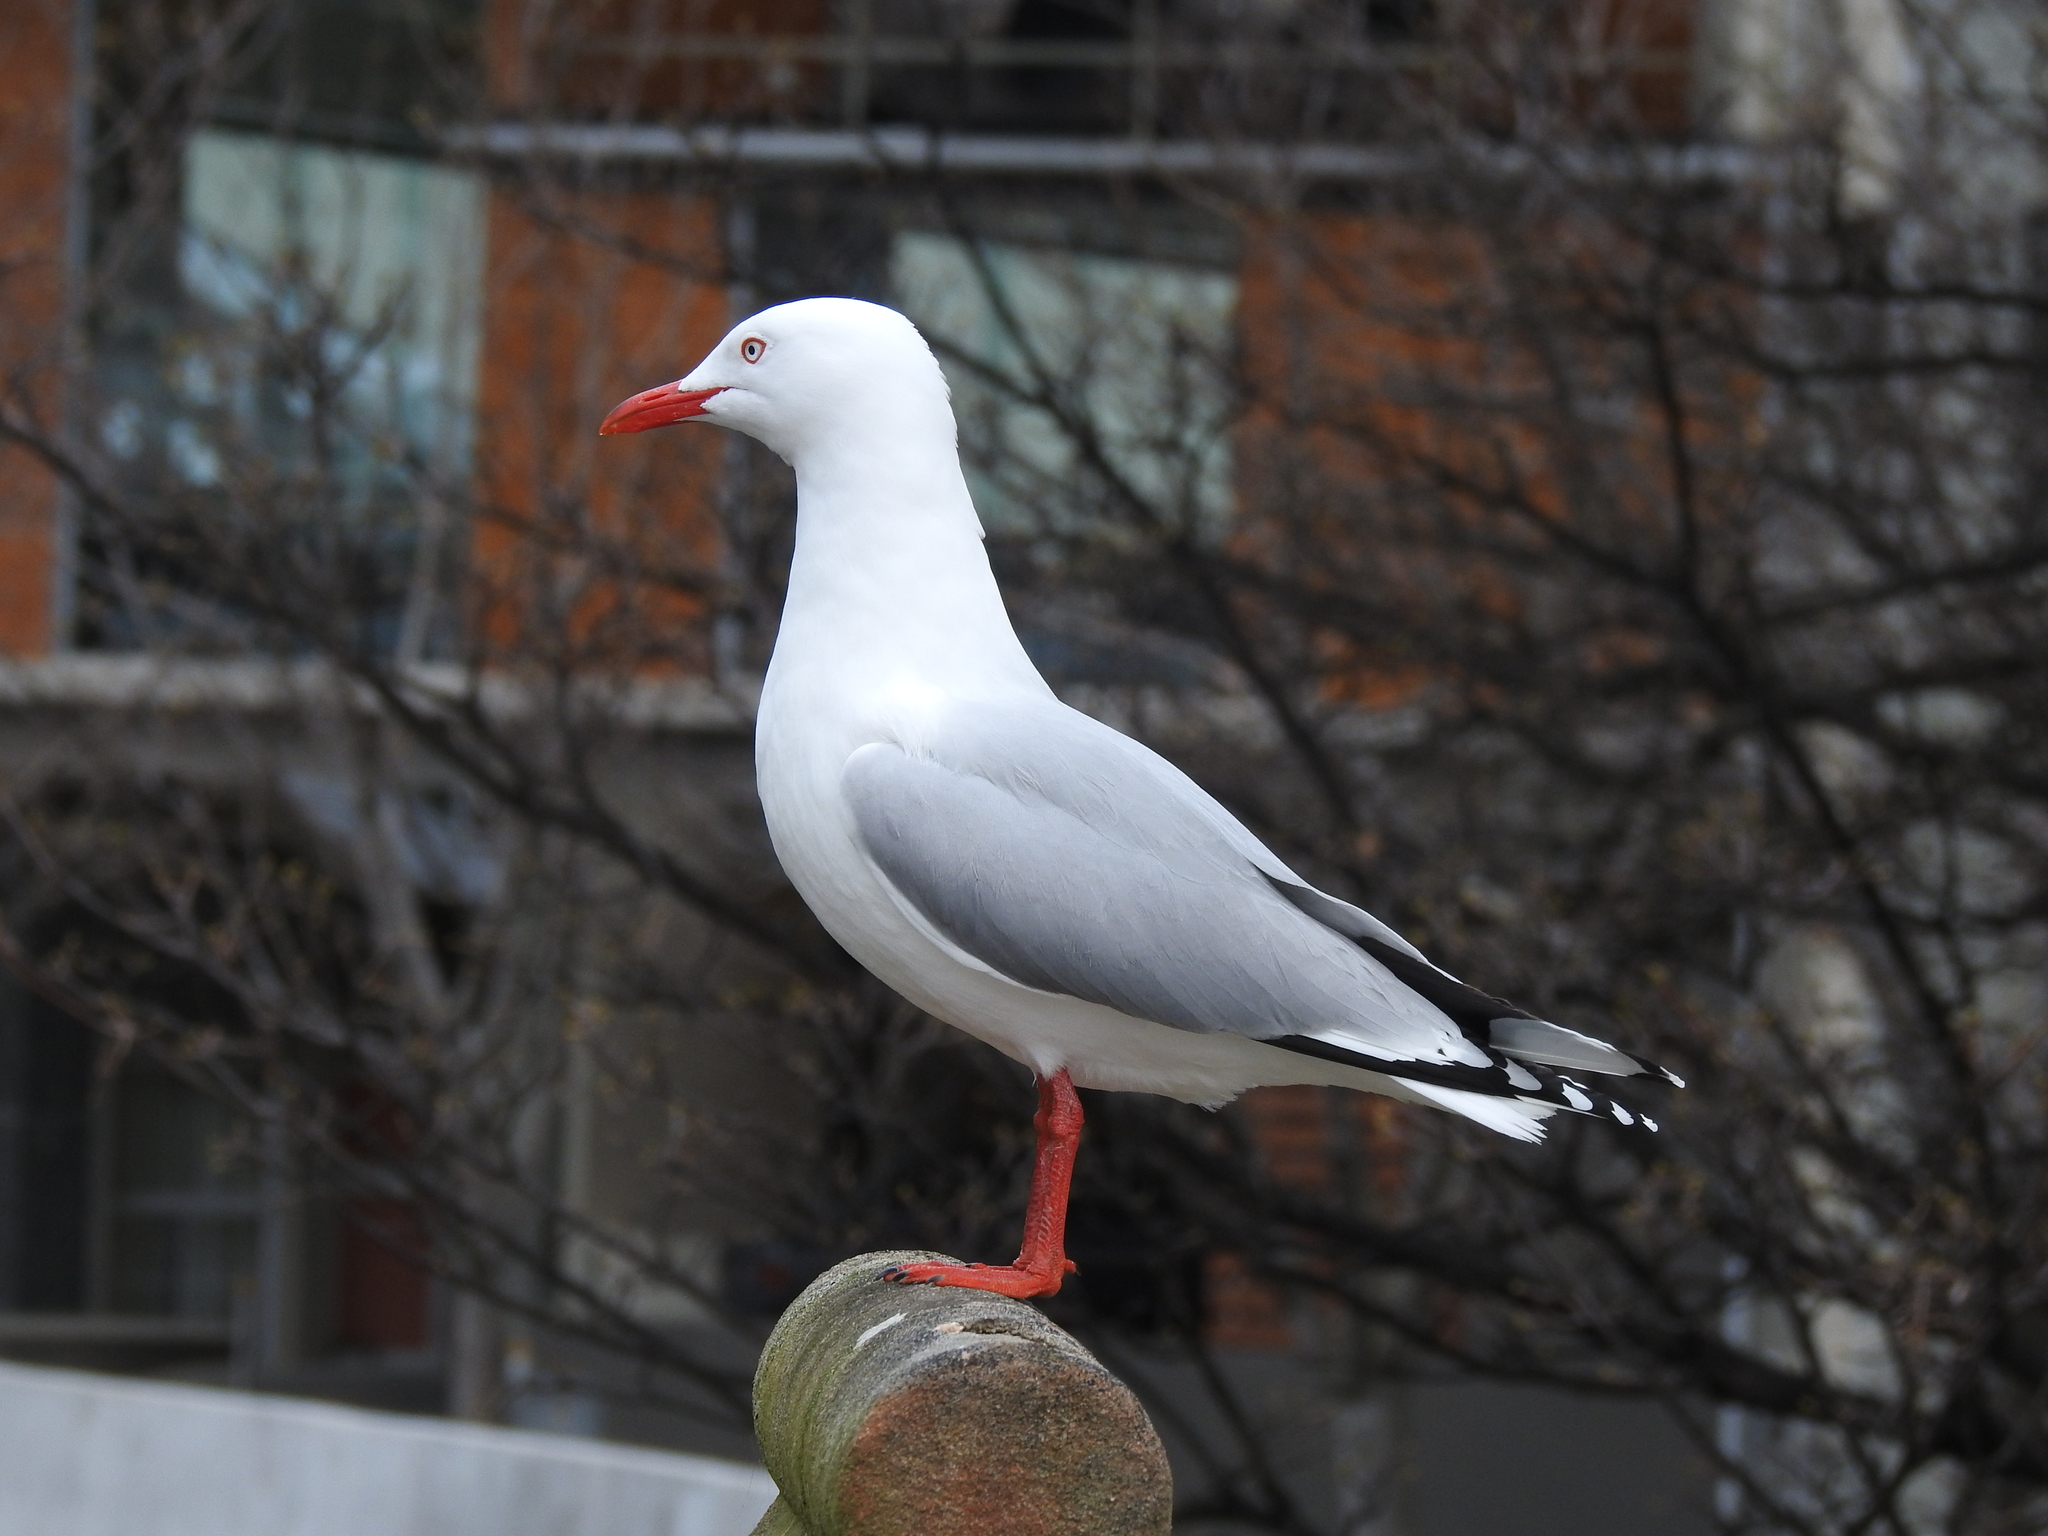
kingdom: Animalia
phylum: Chordata
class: Aves
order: Charadriiformes
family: Laridae
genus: Chroicocephalus
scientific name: Chroicocephalus novaehollandiae
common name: Silver gull
